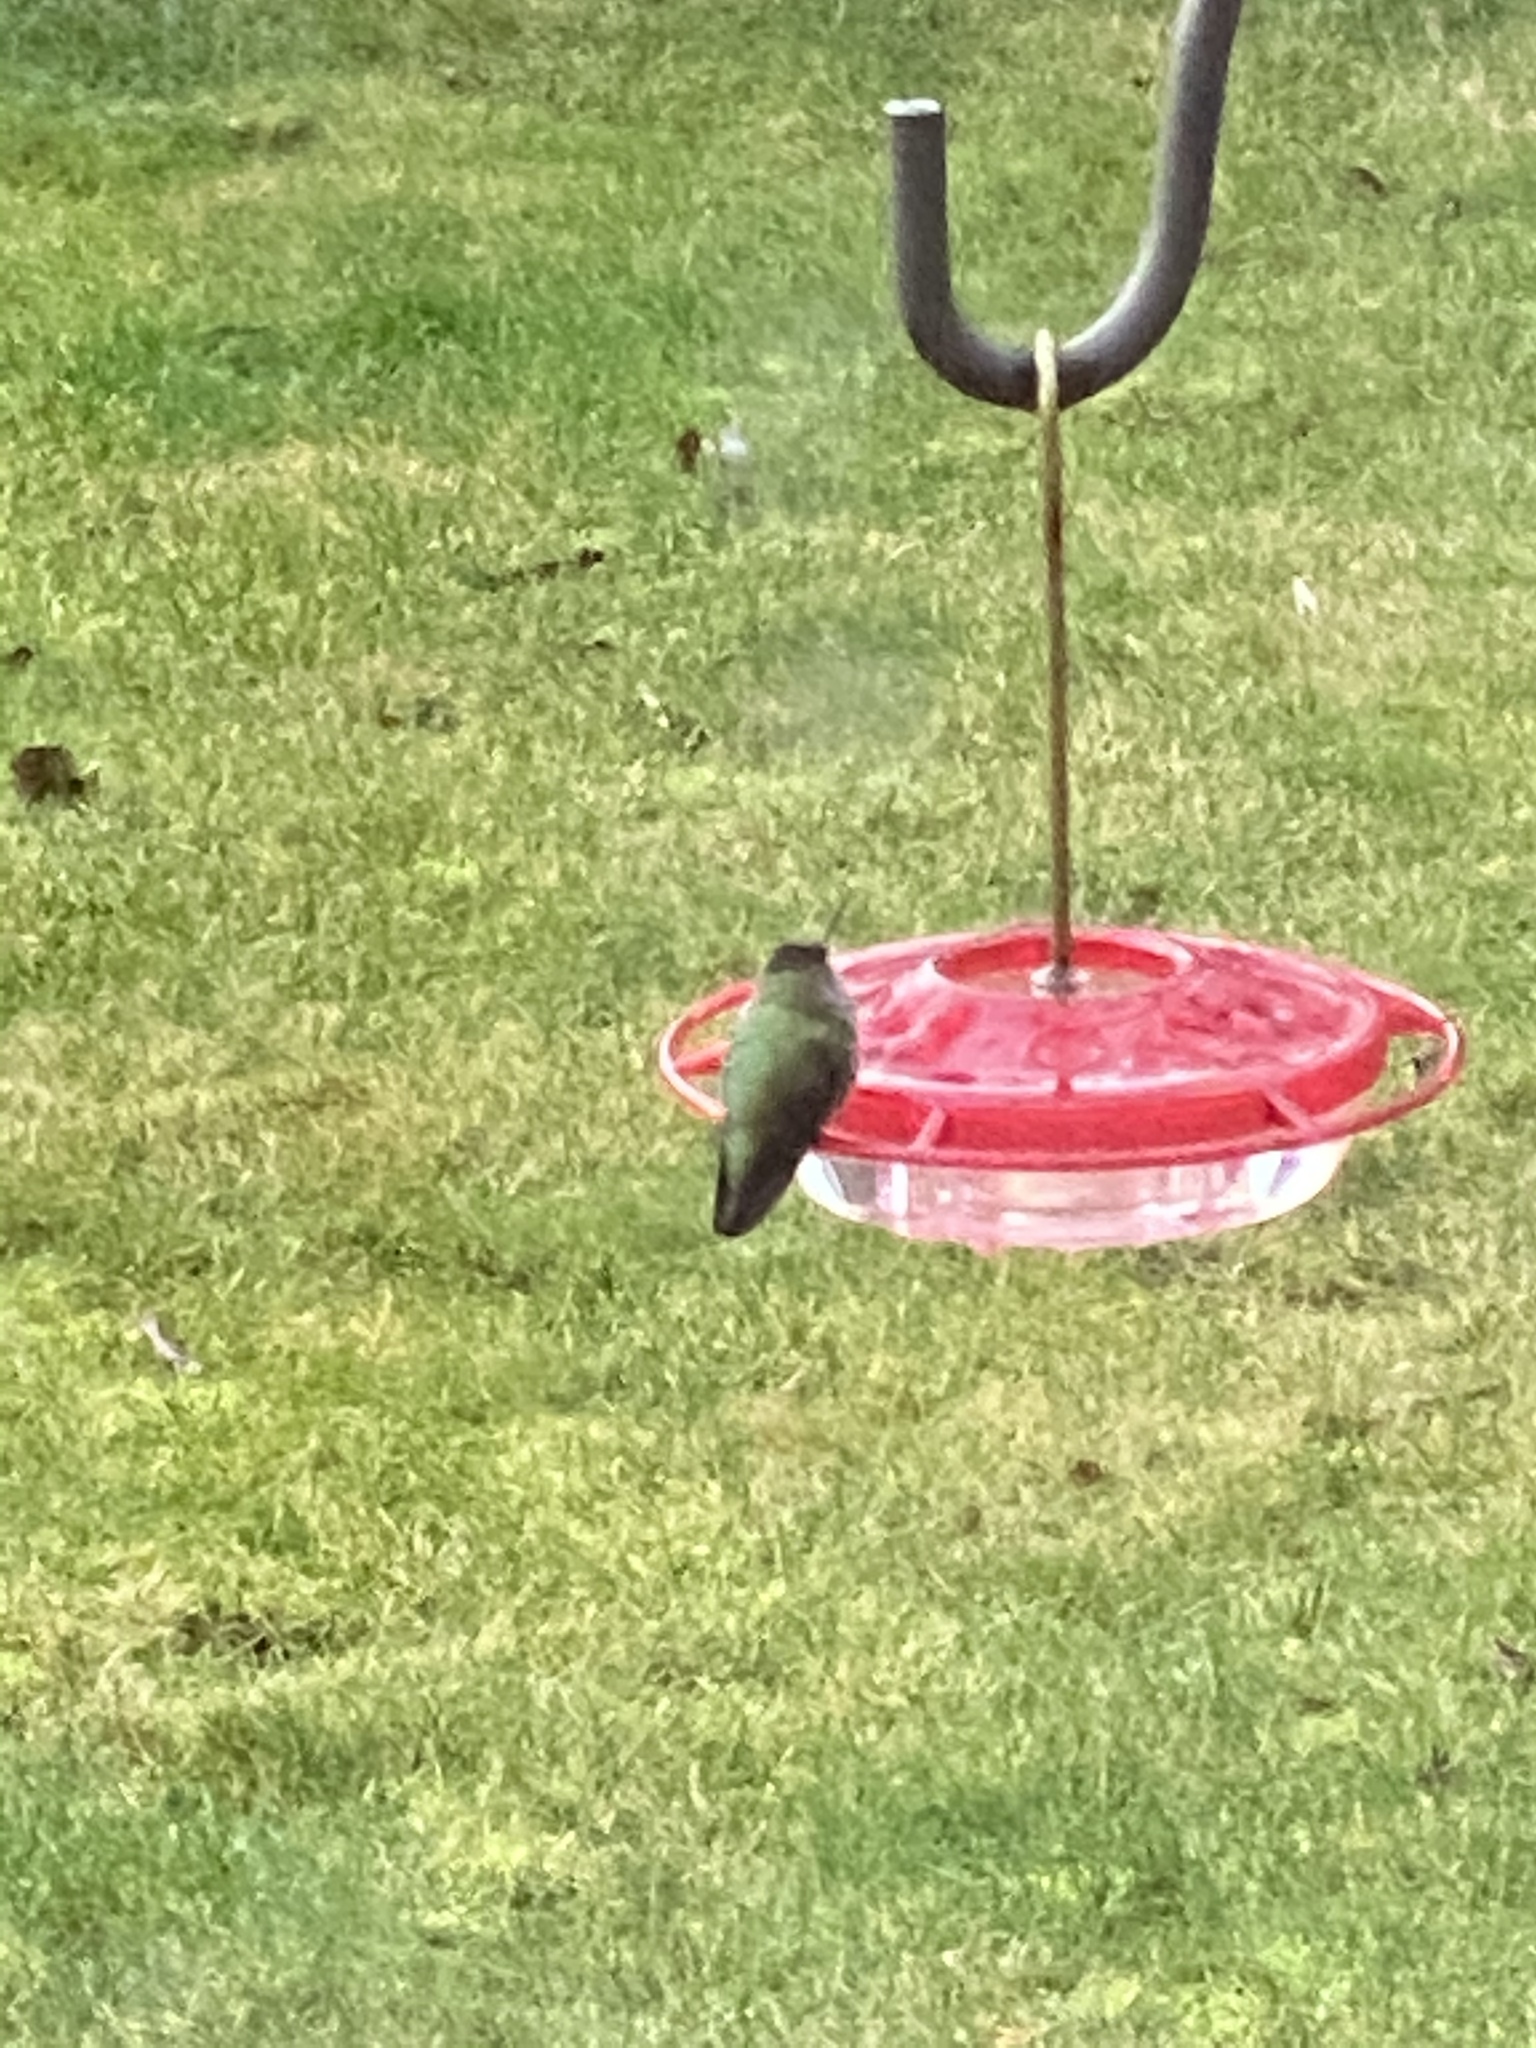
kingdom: Animalia
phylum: Chordata
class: Aves
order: Apodiformes
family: Trochilidae
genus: Calypte
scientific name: Calypte anna
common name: Anna's hummingbird
